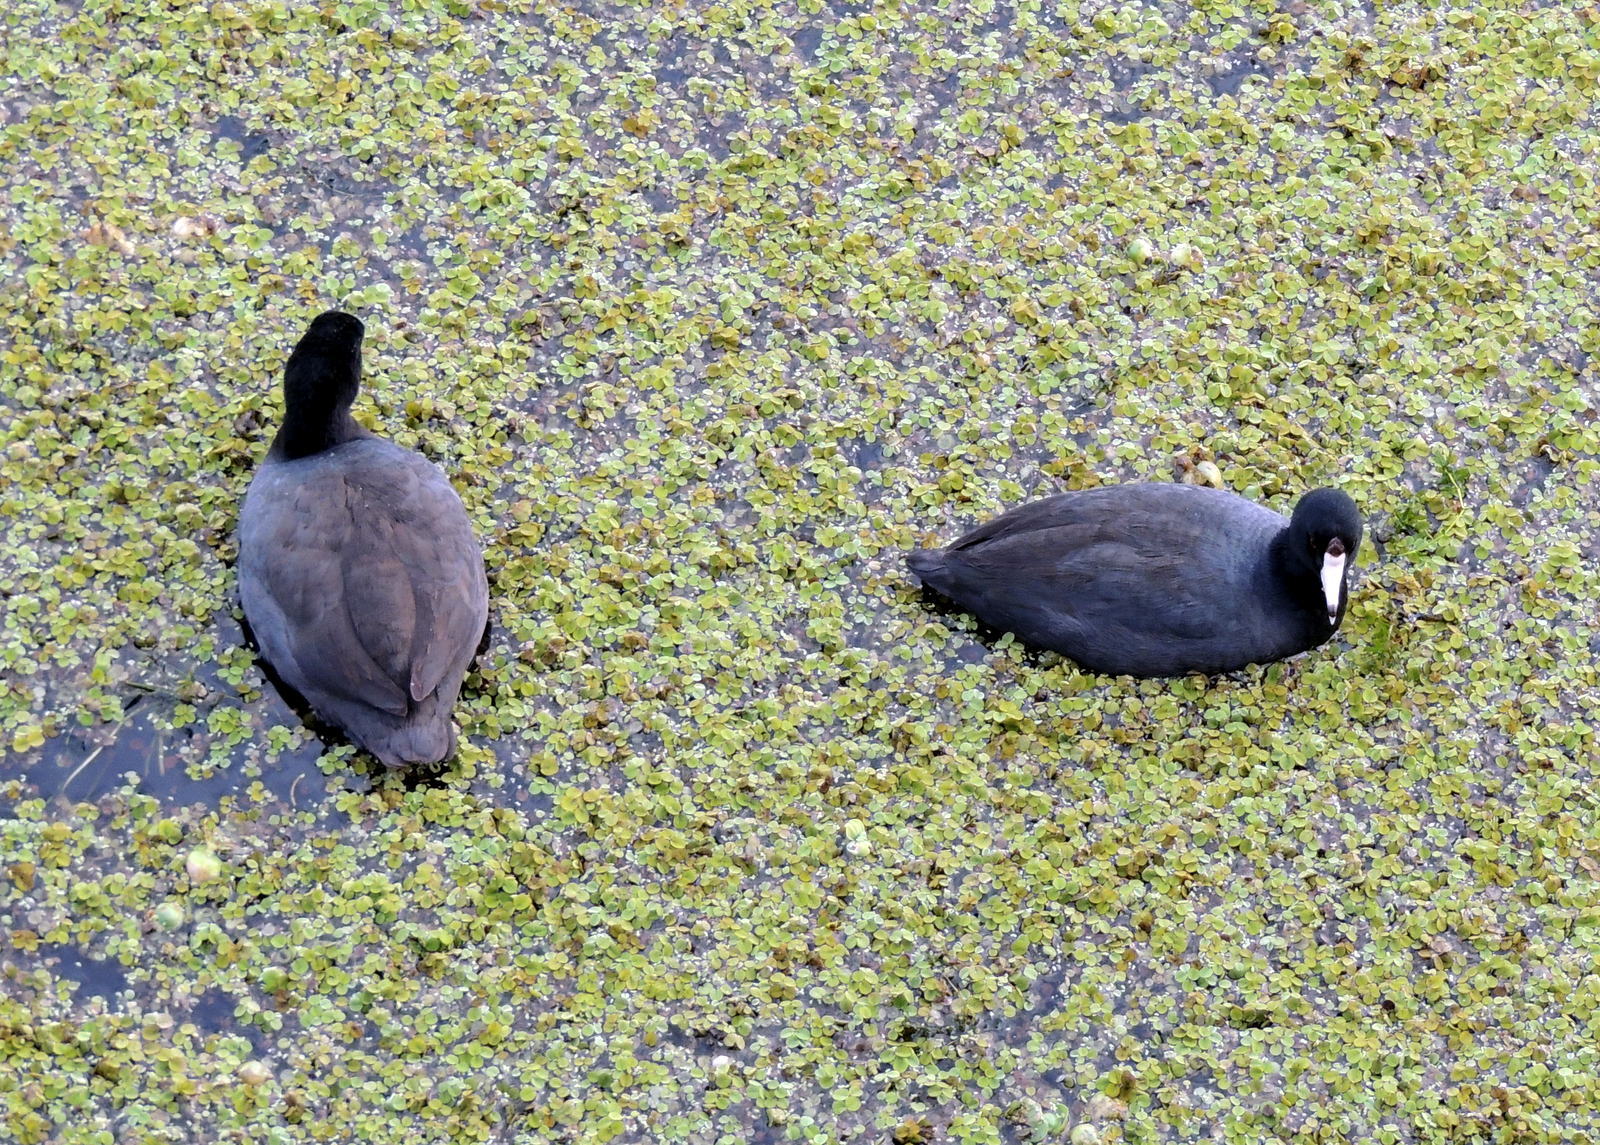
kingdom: Animalia
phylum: Chordata
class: Aves
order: Gruiformes
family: Rallidae
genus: Fulica
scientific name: Fulica americana
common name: American coot
